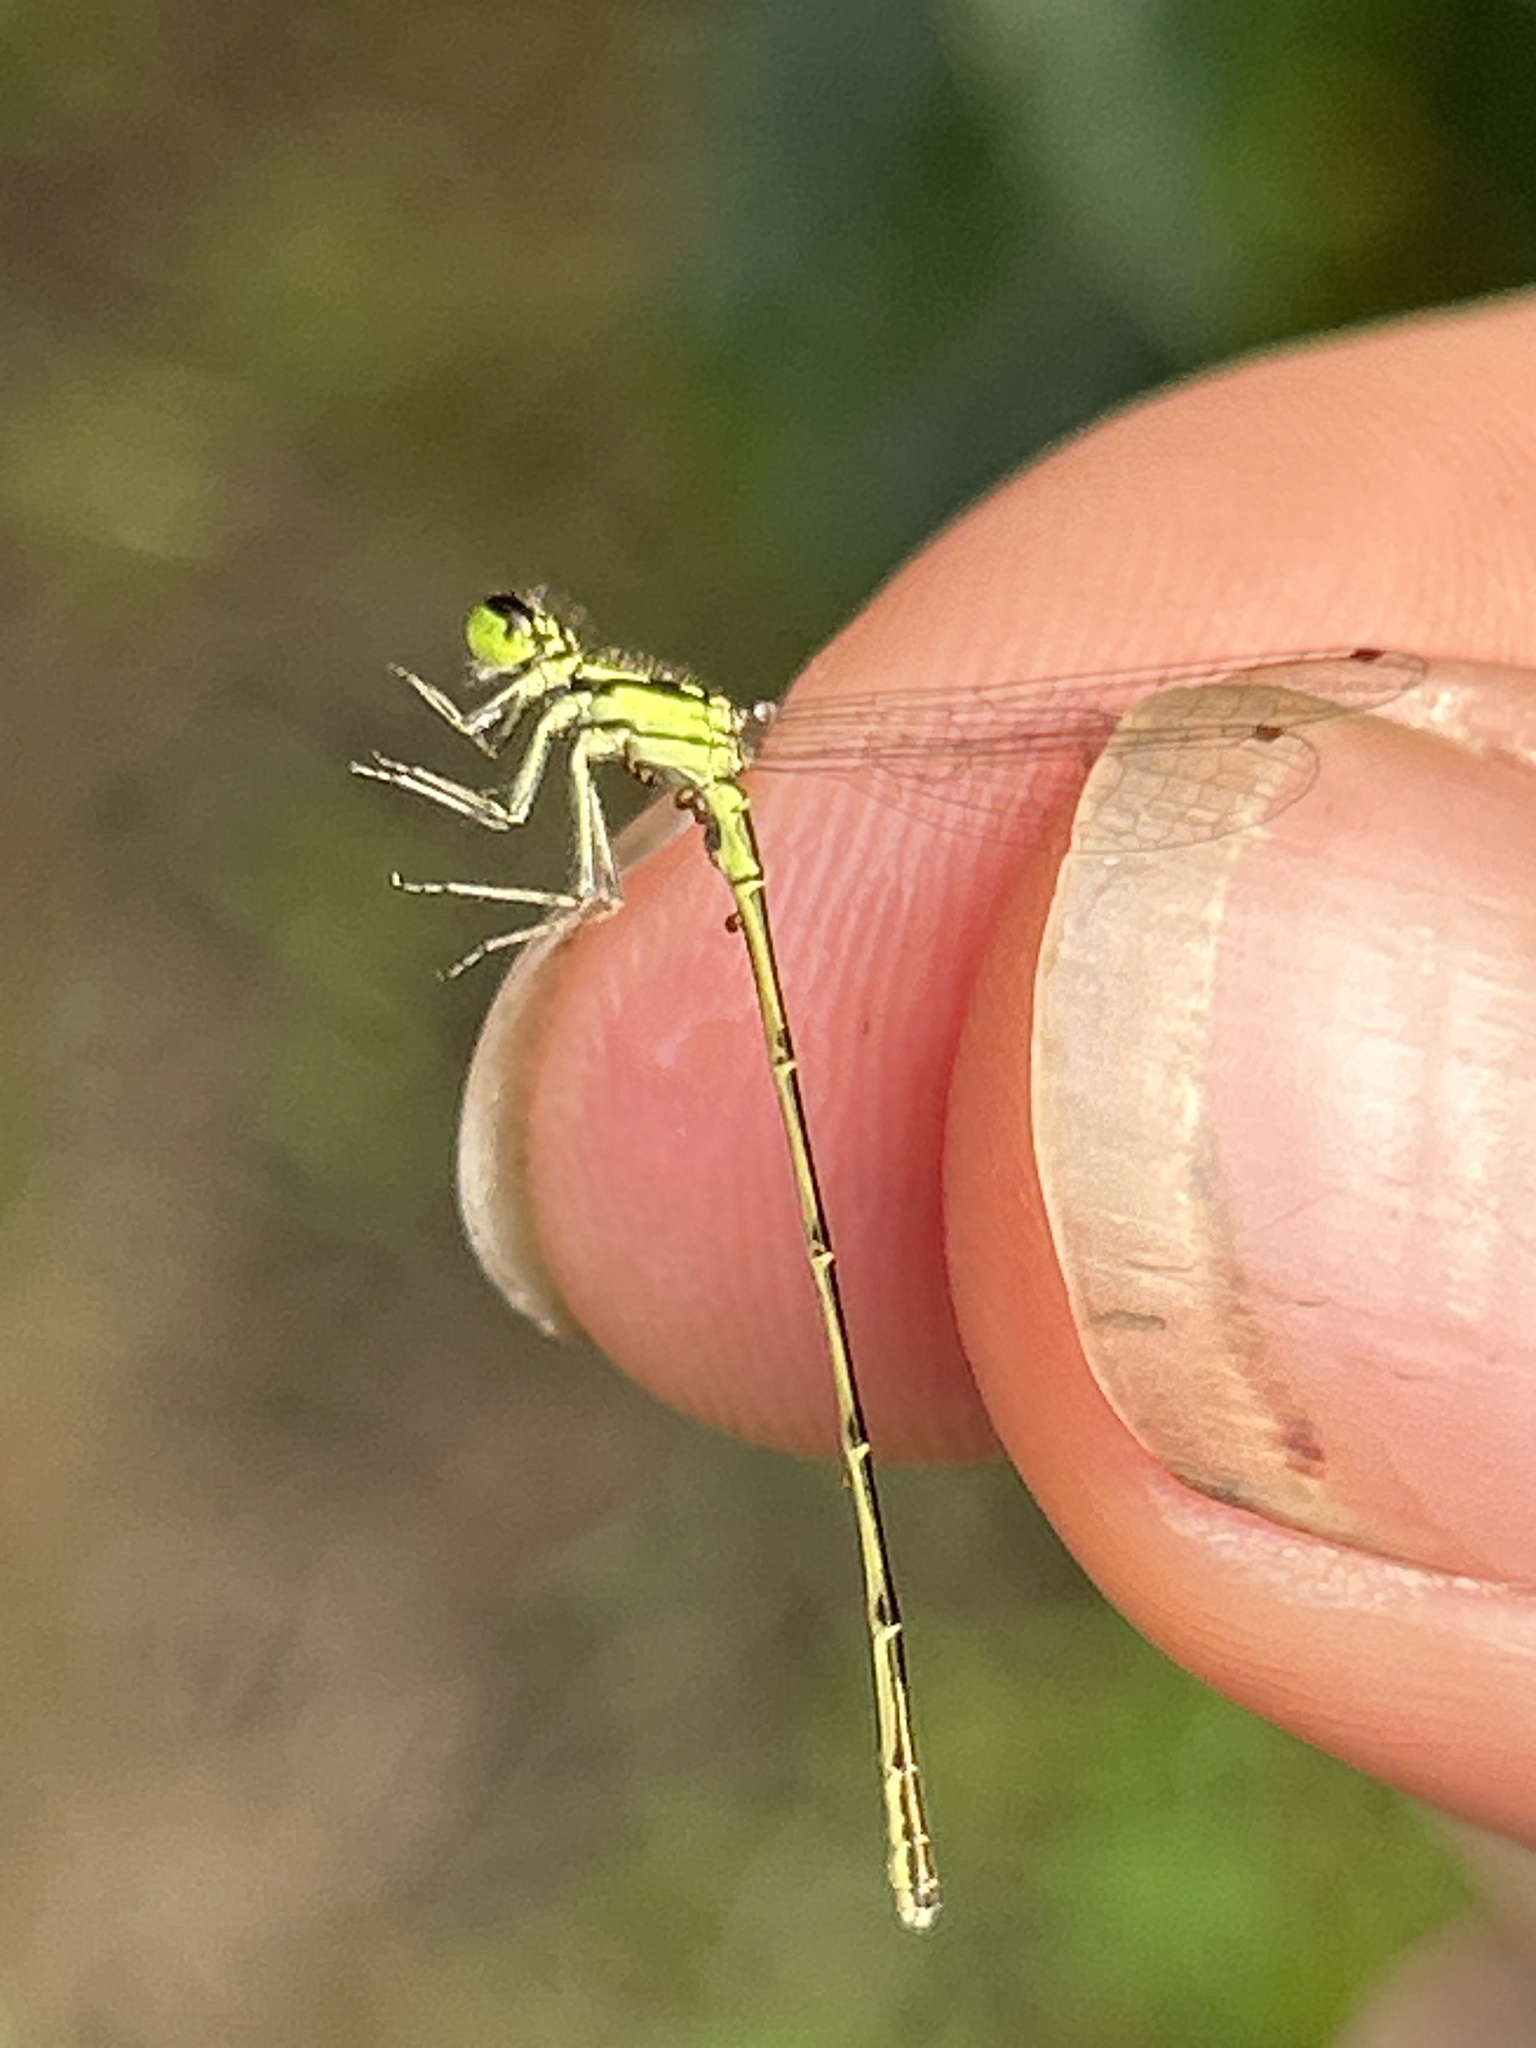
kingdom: Animalia
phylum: Arthropoda
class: Insecta
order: Odonata
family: Coenagrionidae
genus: Ischnura
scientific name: Ischnura posita
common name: Fragile forktail
